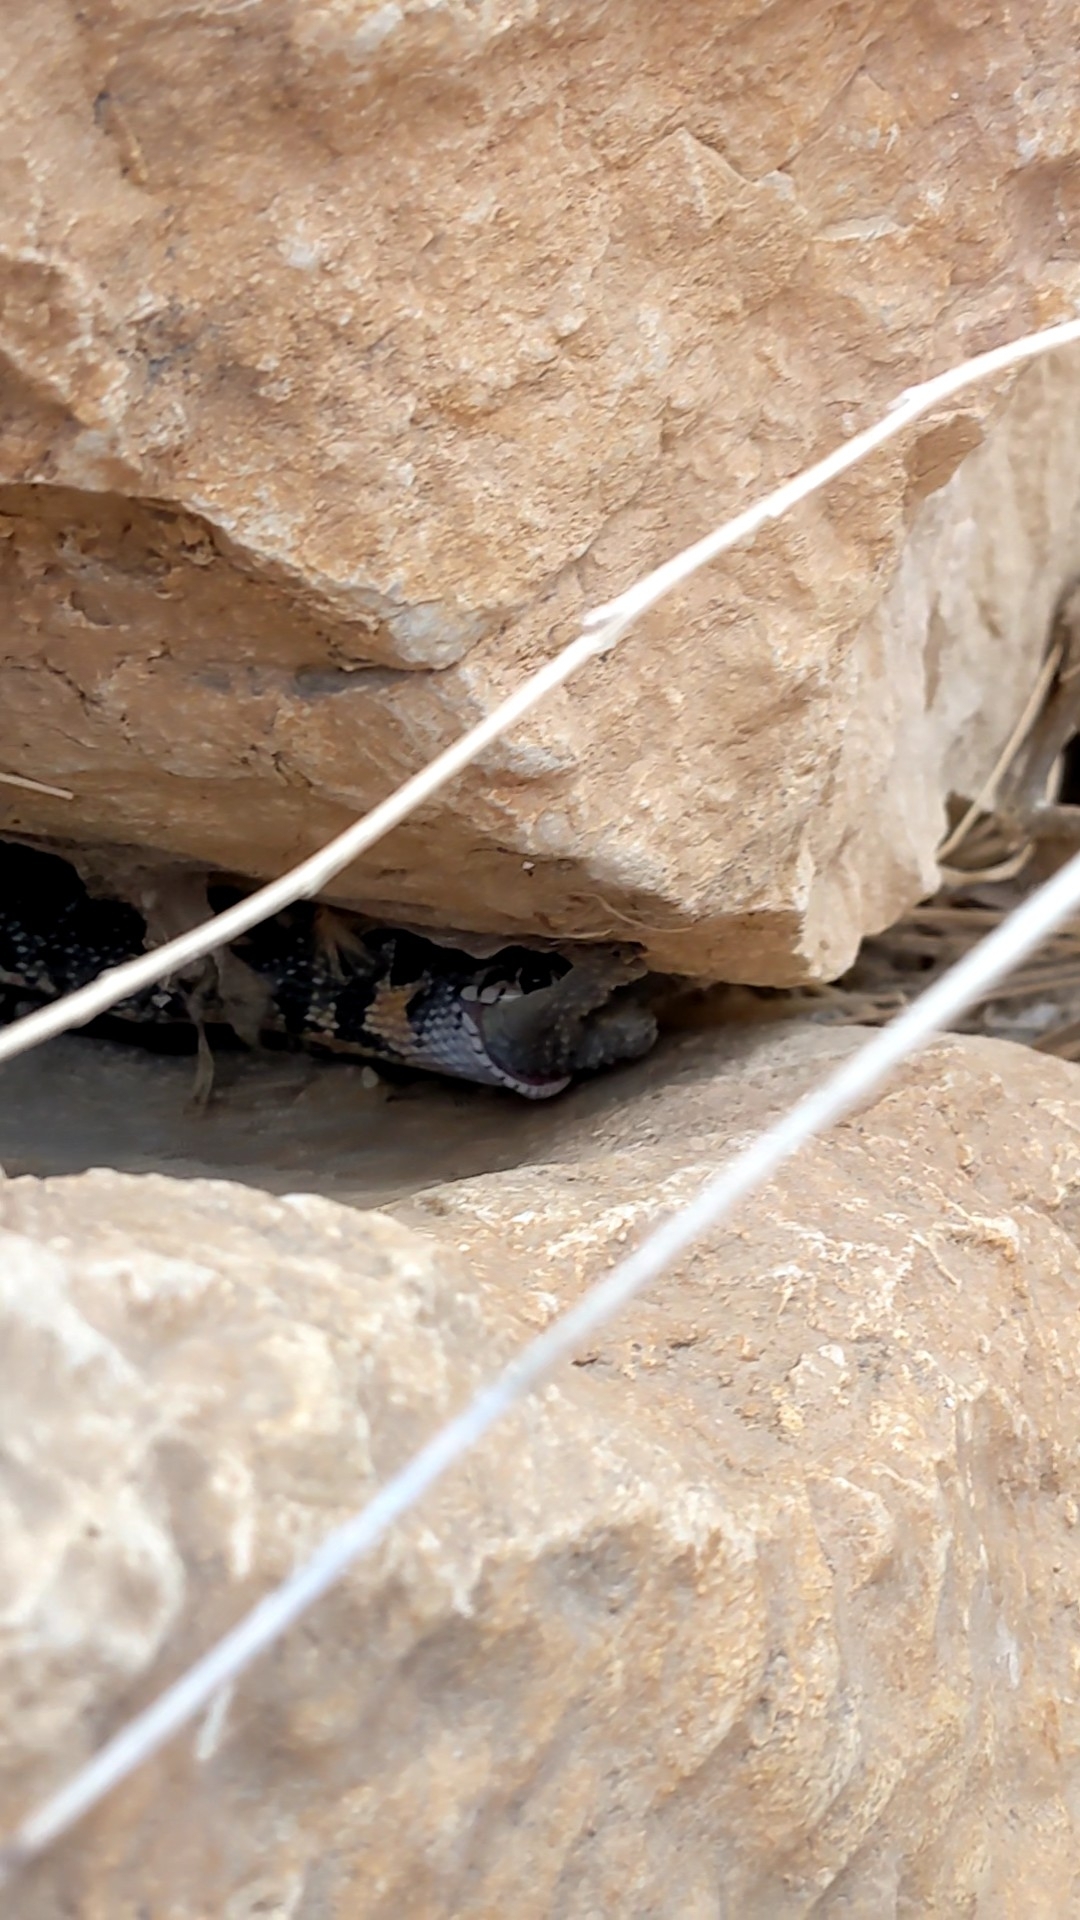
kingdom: Animalia
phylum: Chordata
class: Squamata
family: Phyllodactylidae
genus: Tarentola
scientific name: Tarentola mauritanica
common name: Moorish gecko
